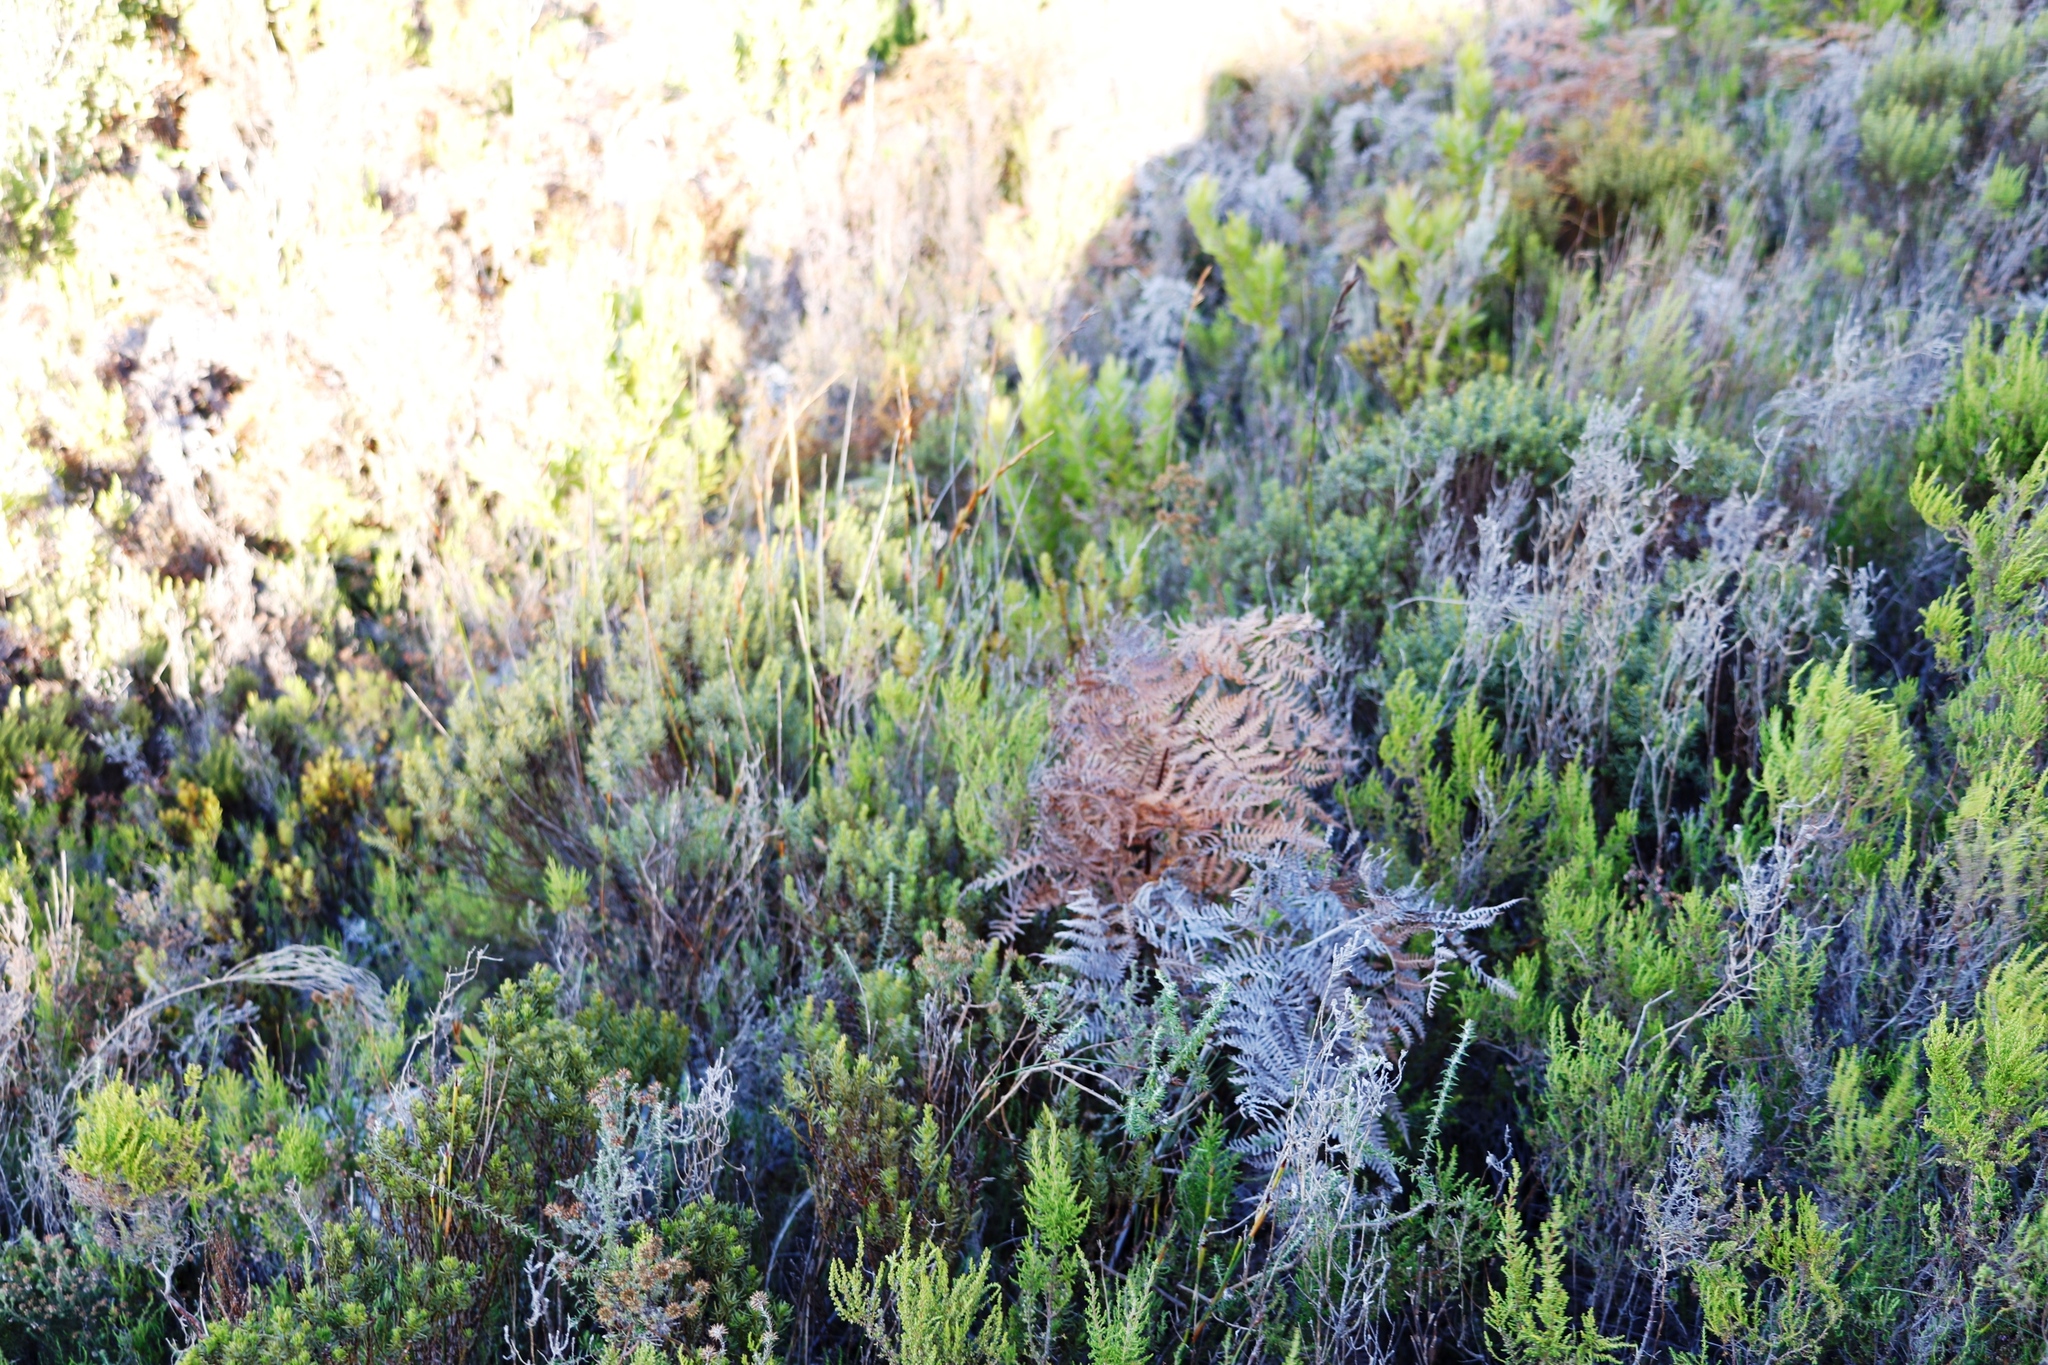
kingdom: Plantae
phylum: Tracheophyta
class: Polypodiopsida
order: Polypodiales
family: Dennstaedtiaceae
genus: Pteridium
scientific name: Pteridium aquilinum
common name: Bracken
